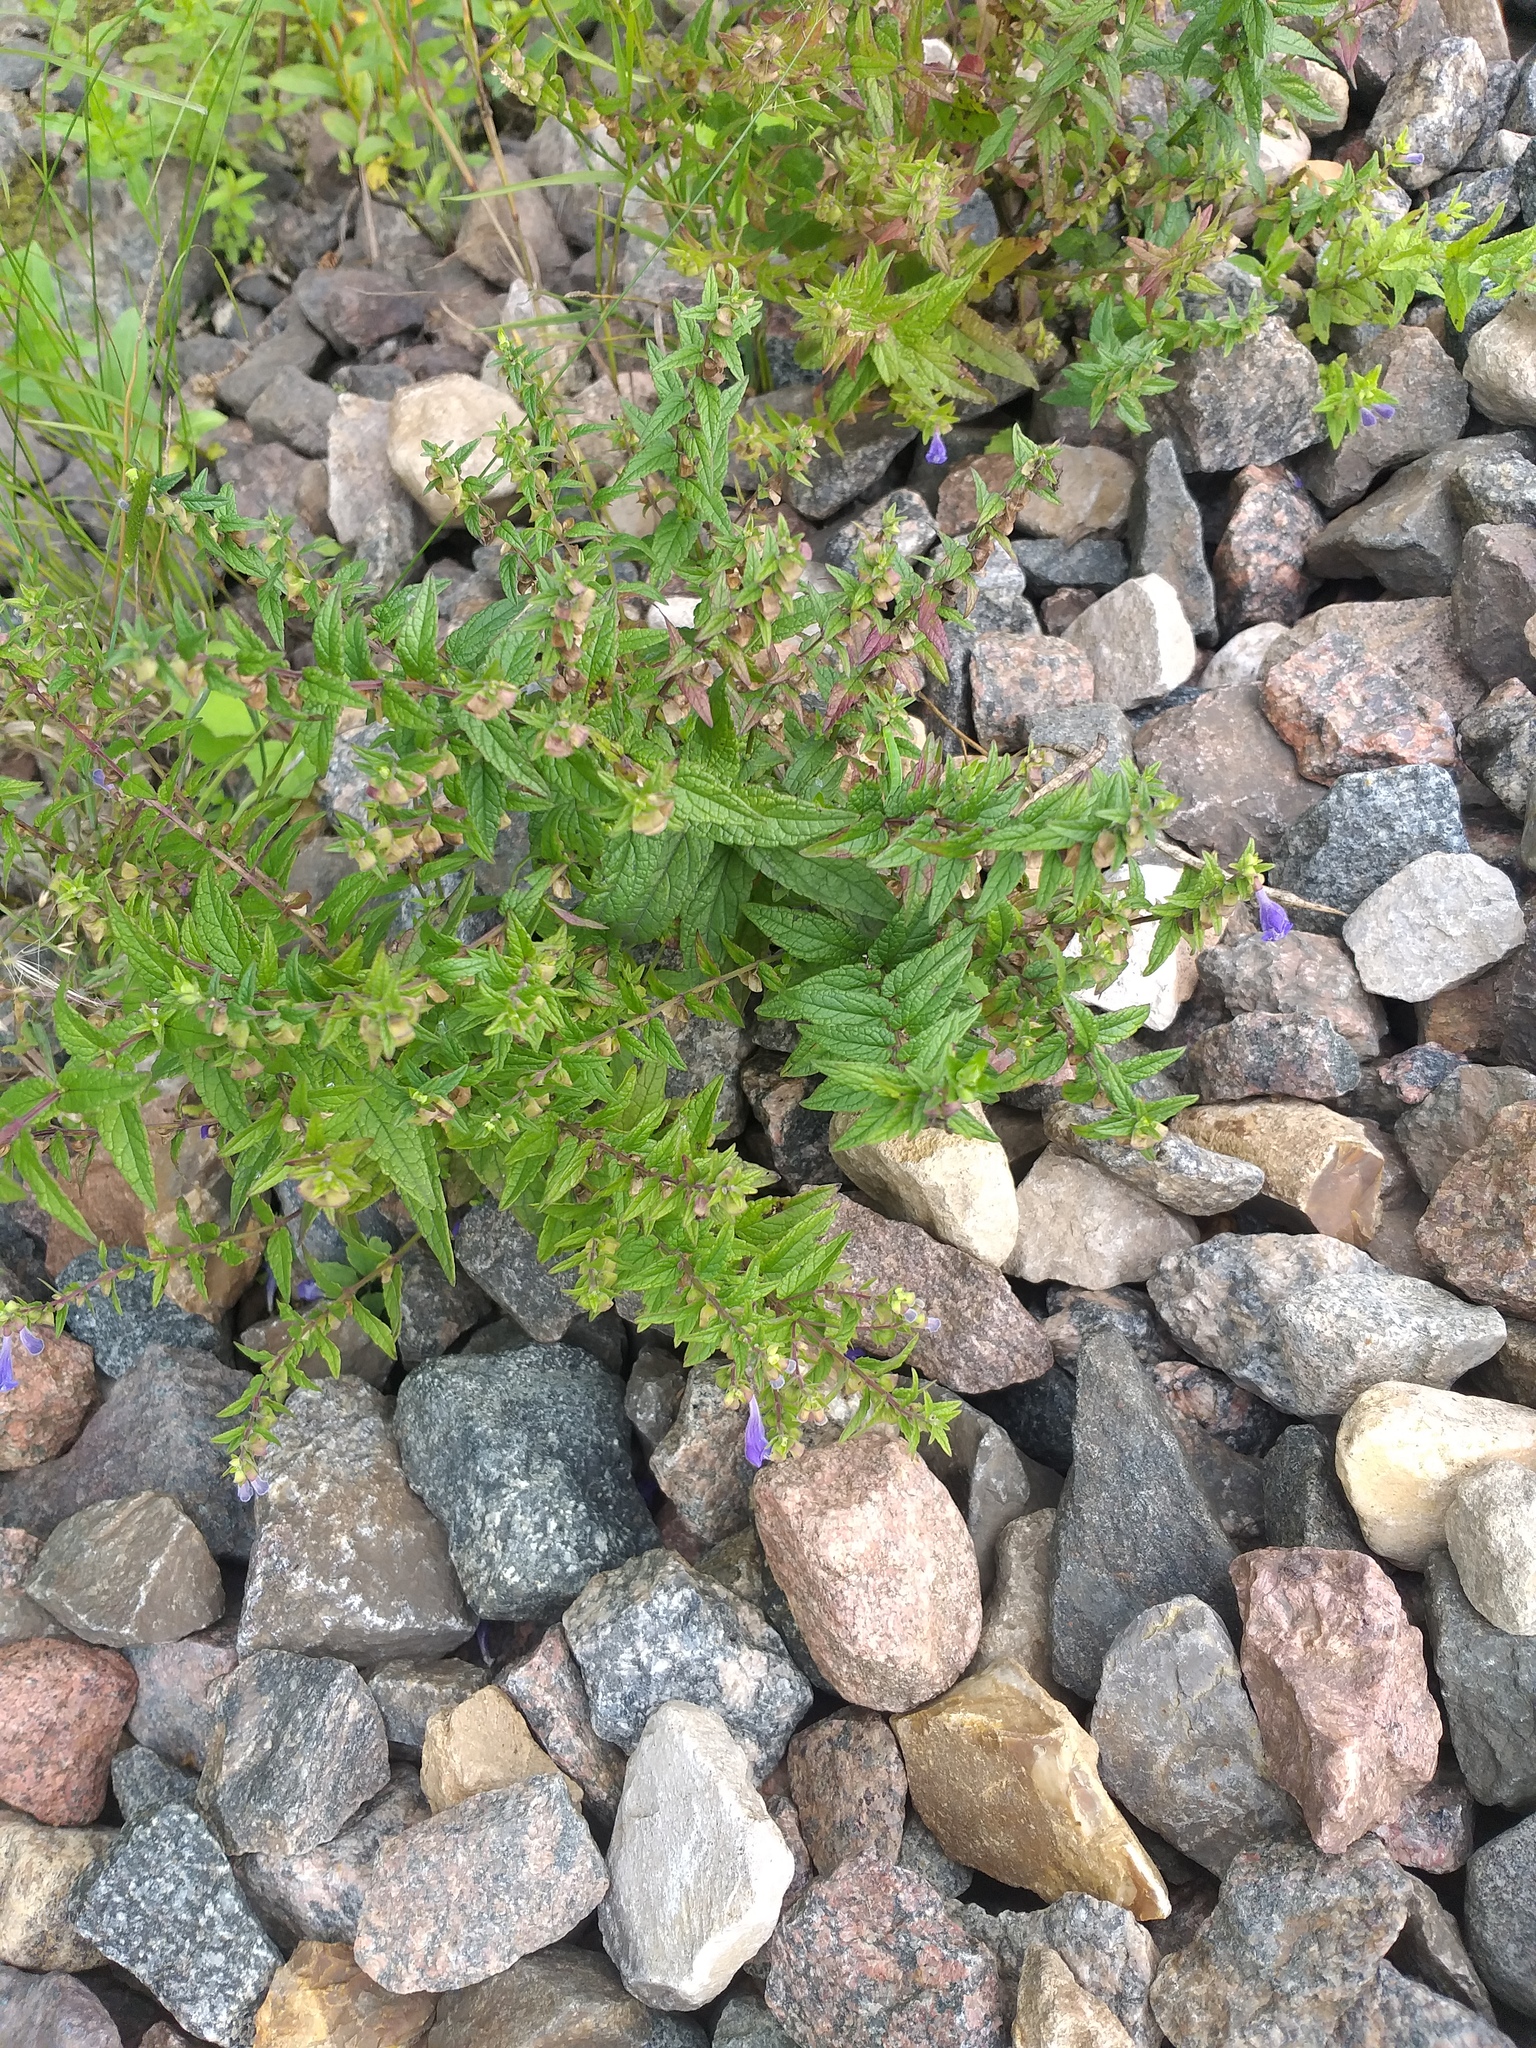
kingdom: Plantae
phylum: Tracheophyta
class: Magnoliopsida
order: Lamiales
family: Lamiaceae
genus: Scutellaria
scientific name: Scutellaria galericulata
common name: Skullcap
